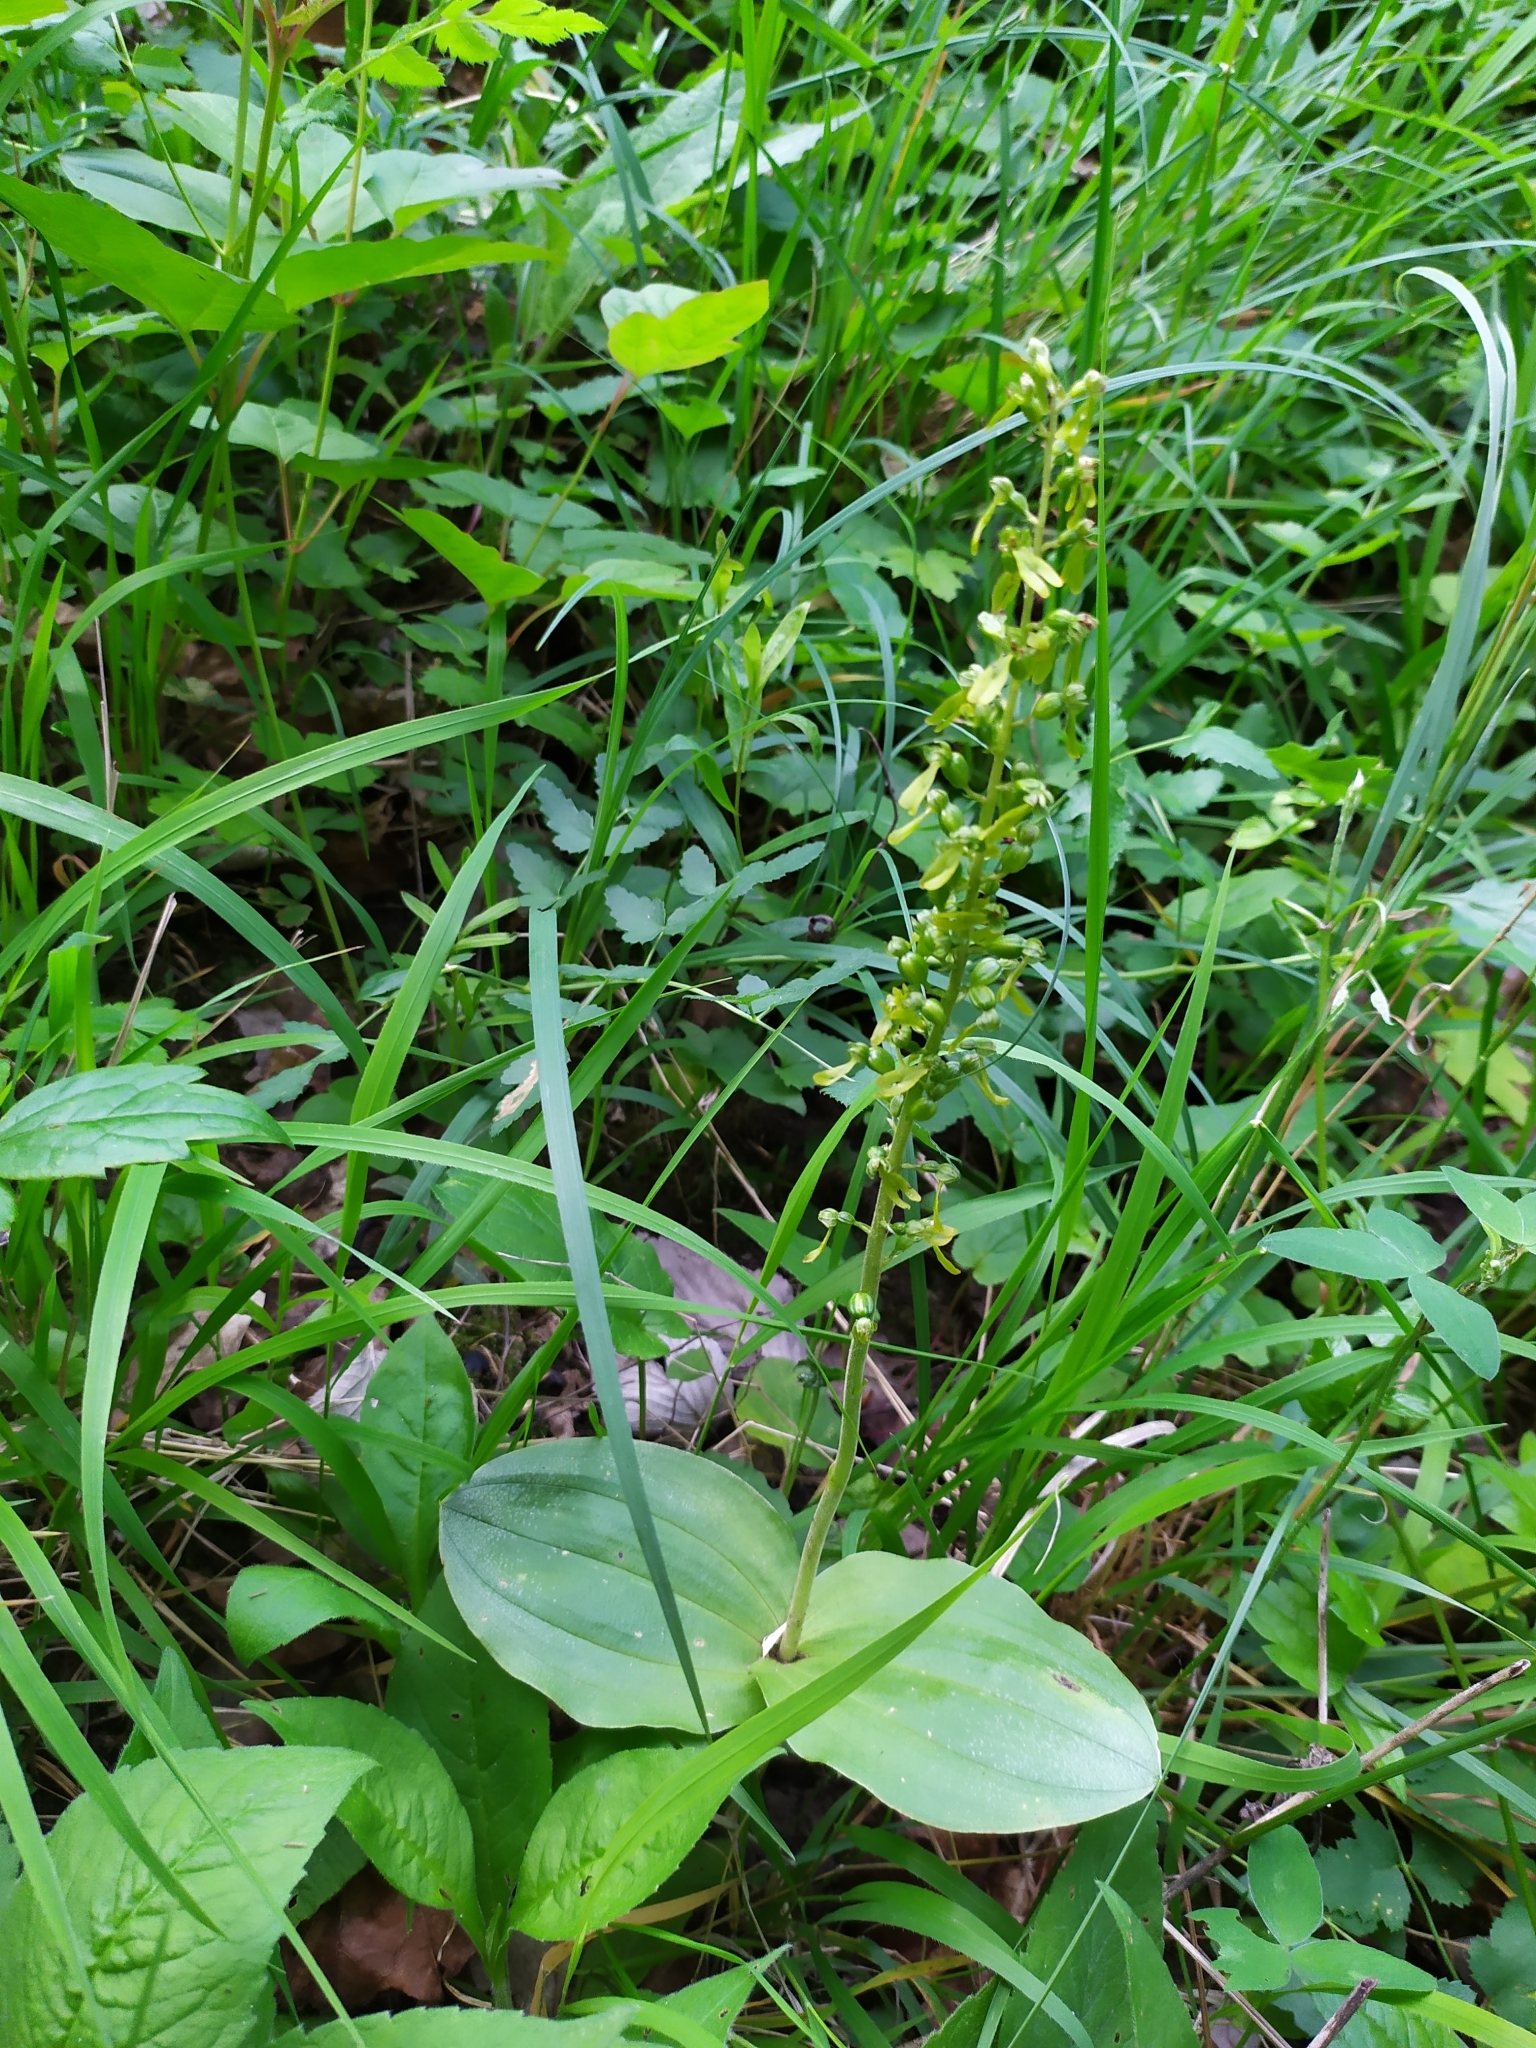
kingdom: Plantae
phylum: Tracheophyta
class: Liliopsida
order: Asparagales
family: Orchidaceae
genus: Neottia
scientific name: Neottia ovata
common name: Common twayblade
